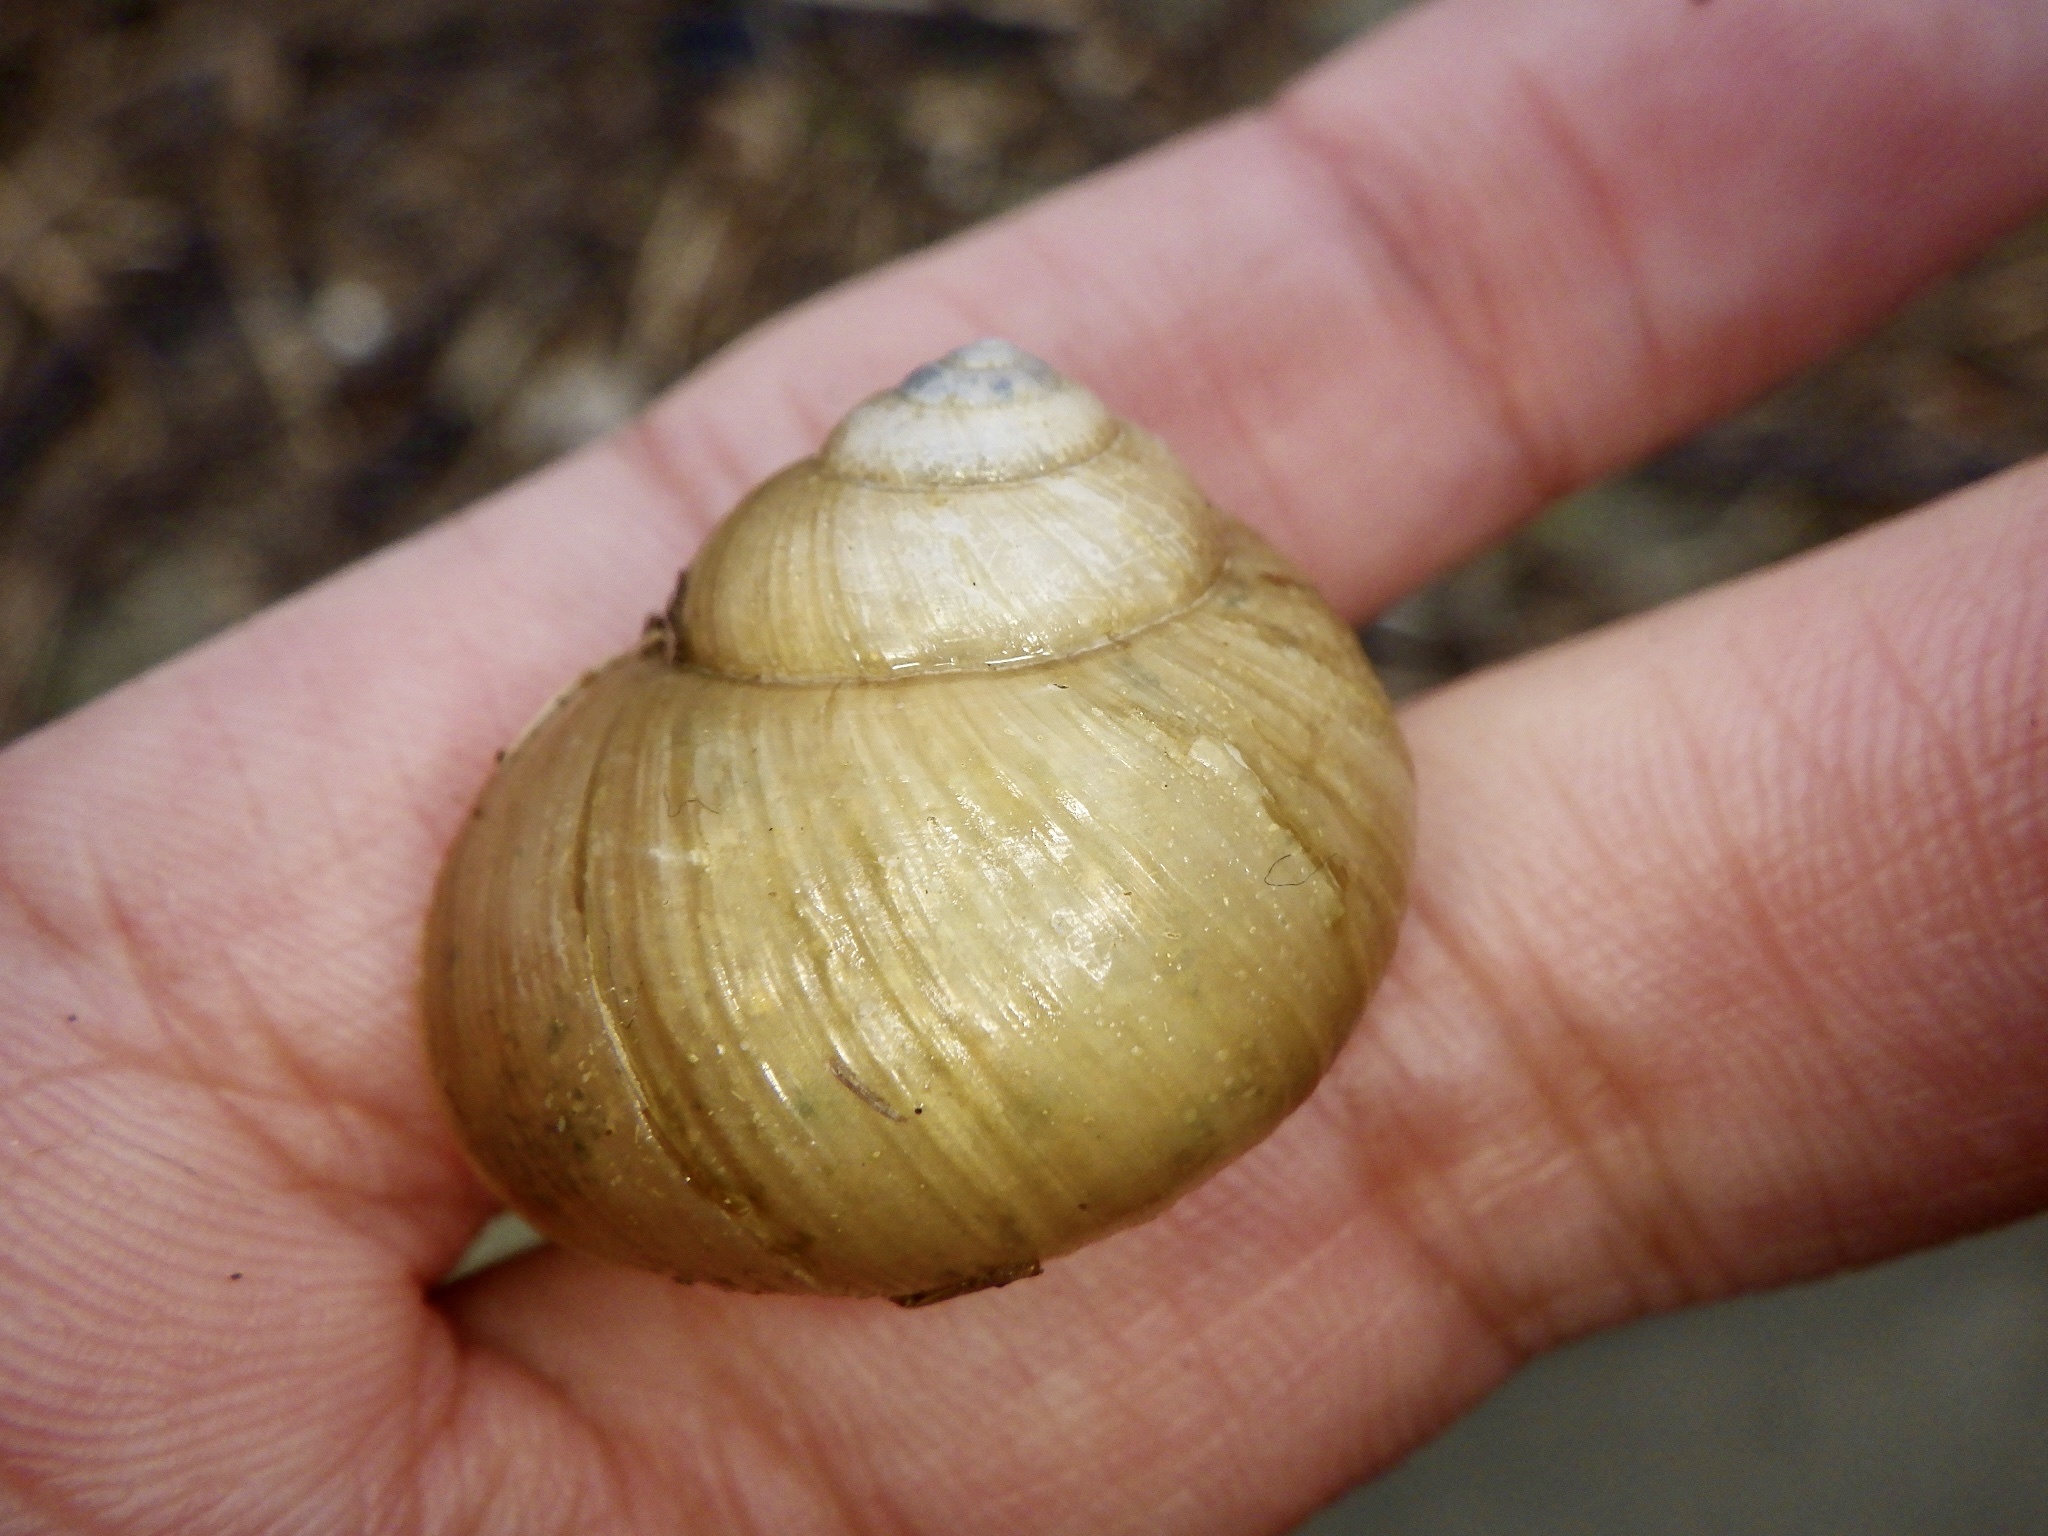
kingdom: Animalia
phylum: Mollusca
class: Gastropoda
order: Stylommatophora
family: Camaenidae
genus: Acusta
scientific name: Acusta sieboldtiana
